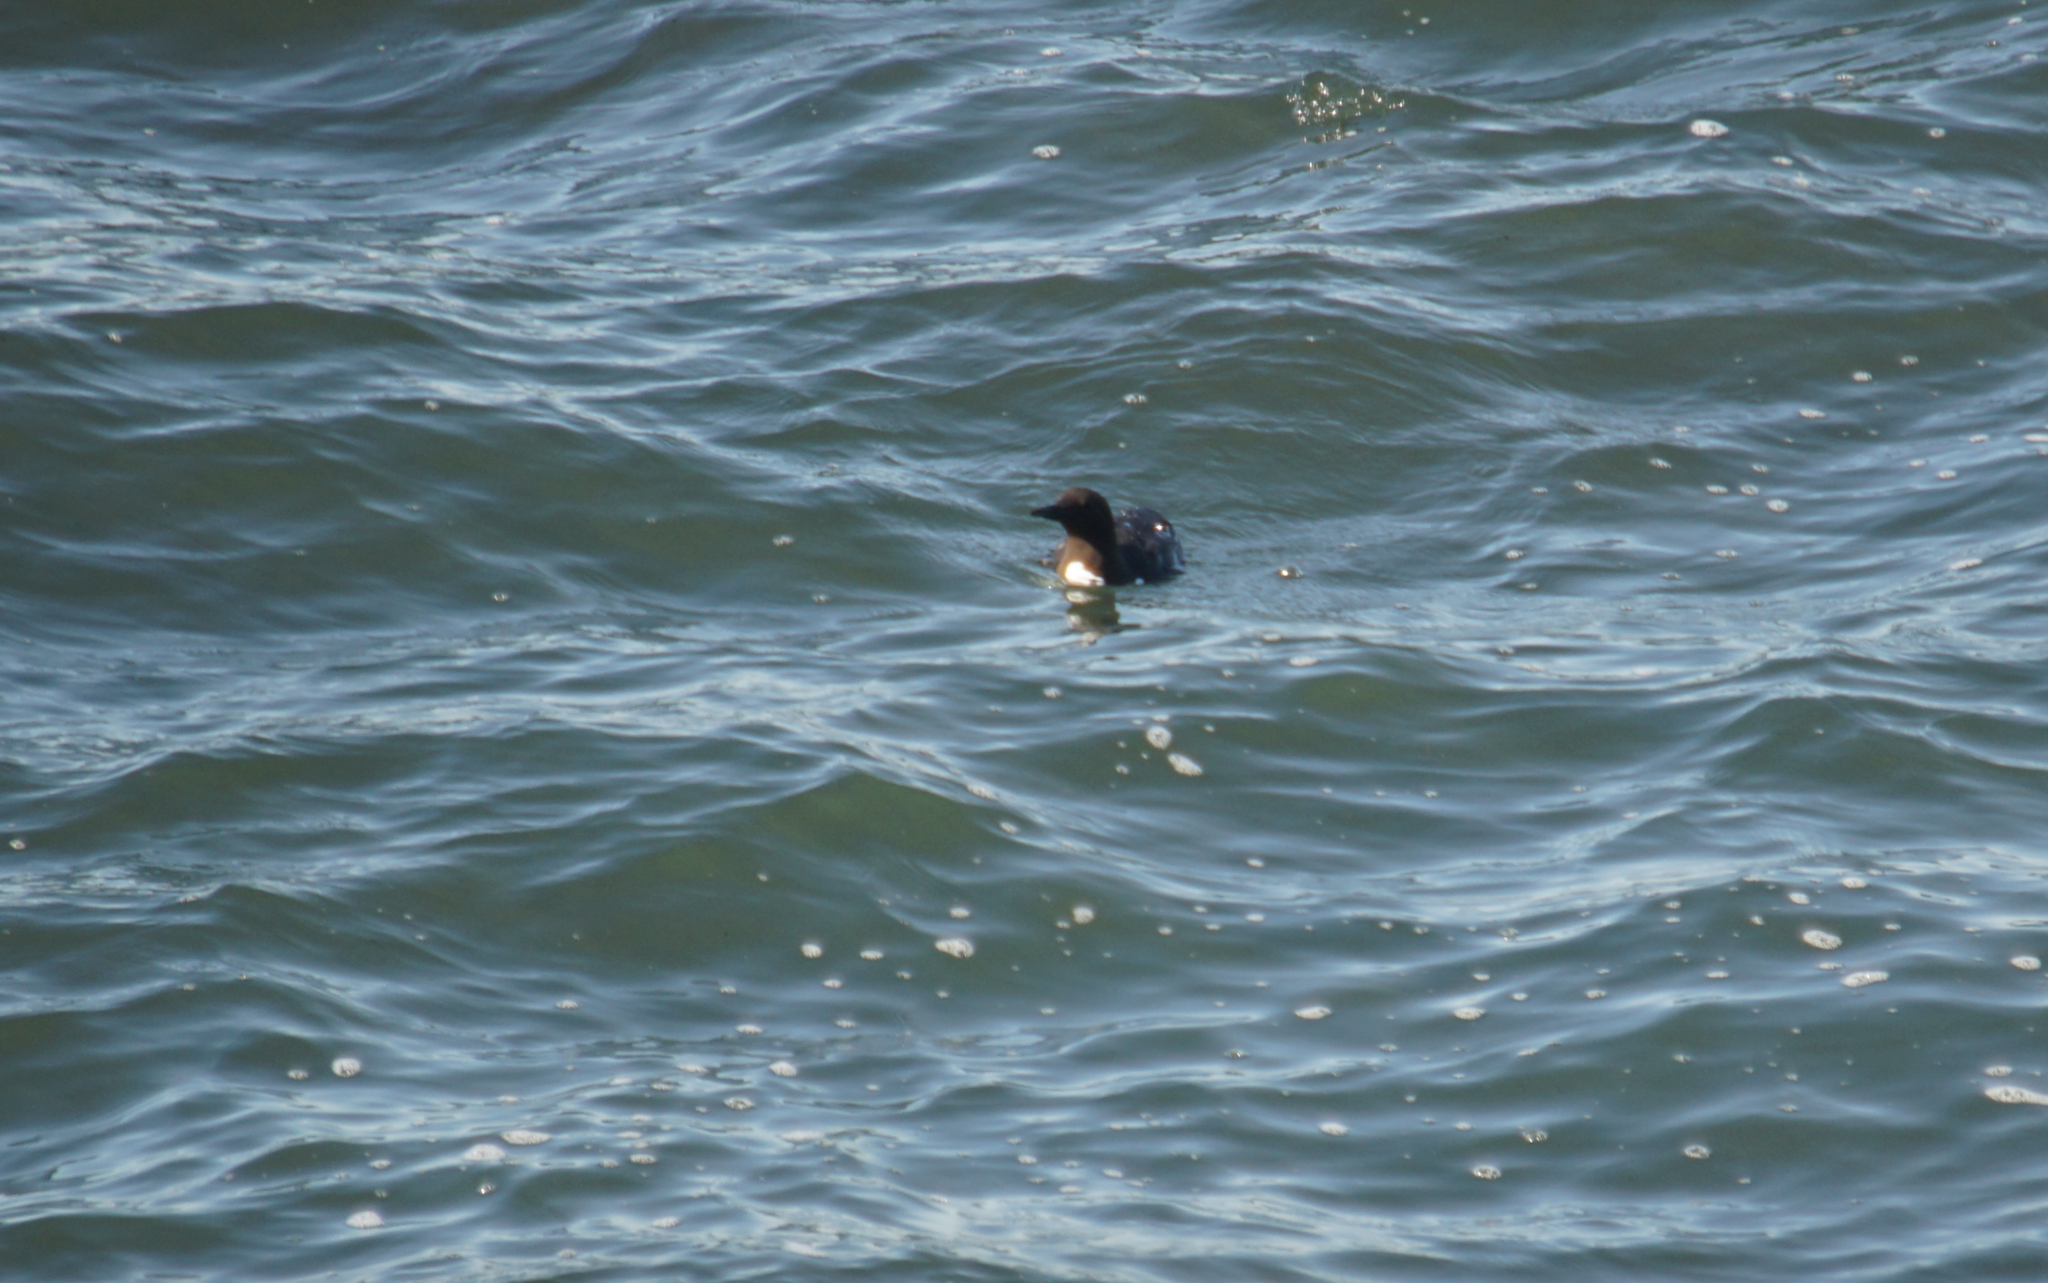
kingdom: Animalia
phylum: Chordata
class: Aves
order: Charadriiformes
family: Alcidae
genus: Uria
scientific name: Uria aalge
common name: Common murre
